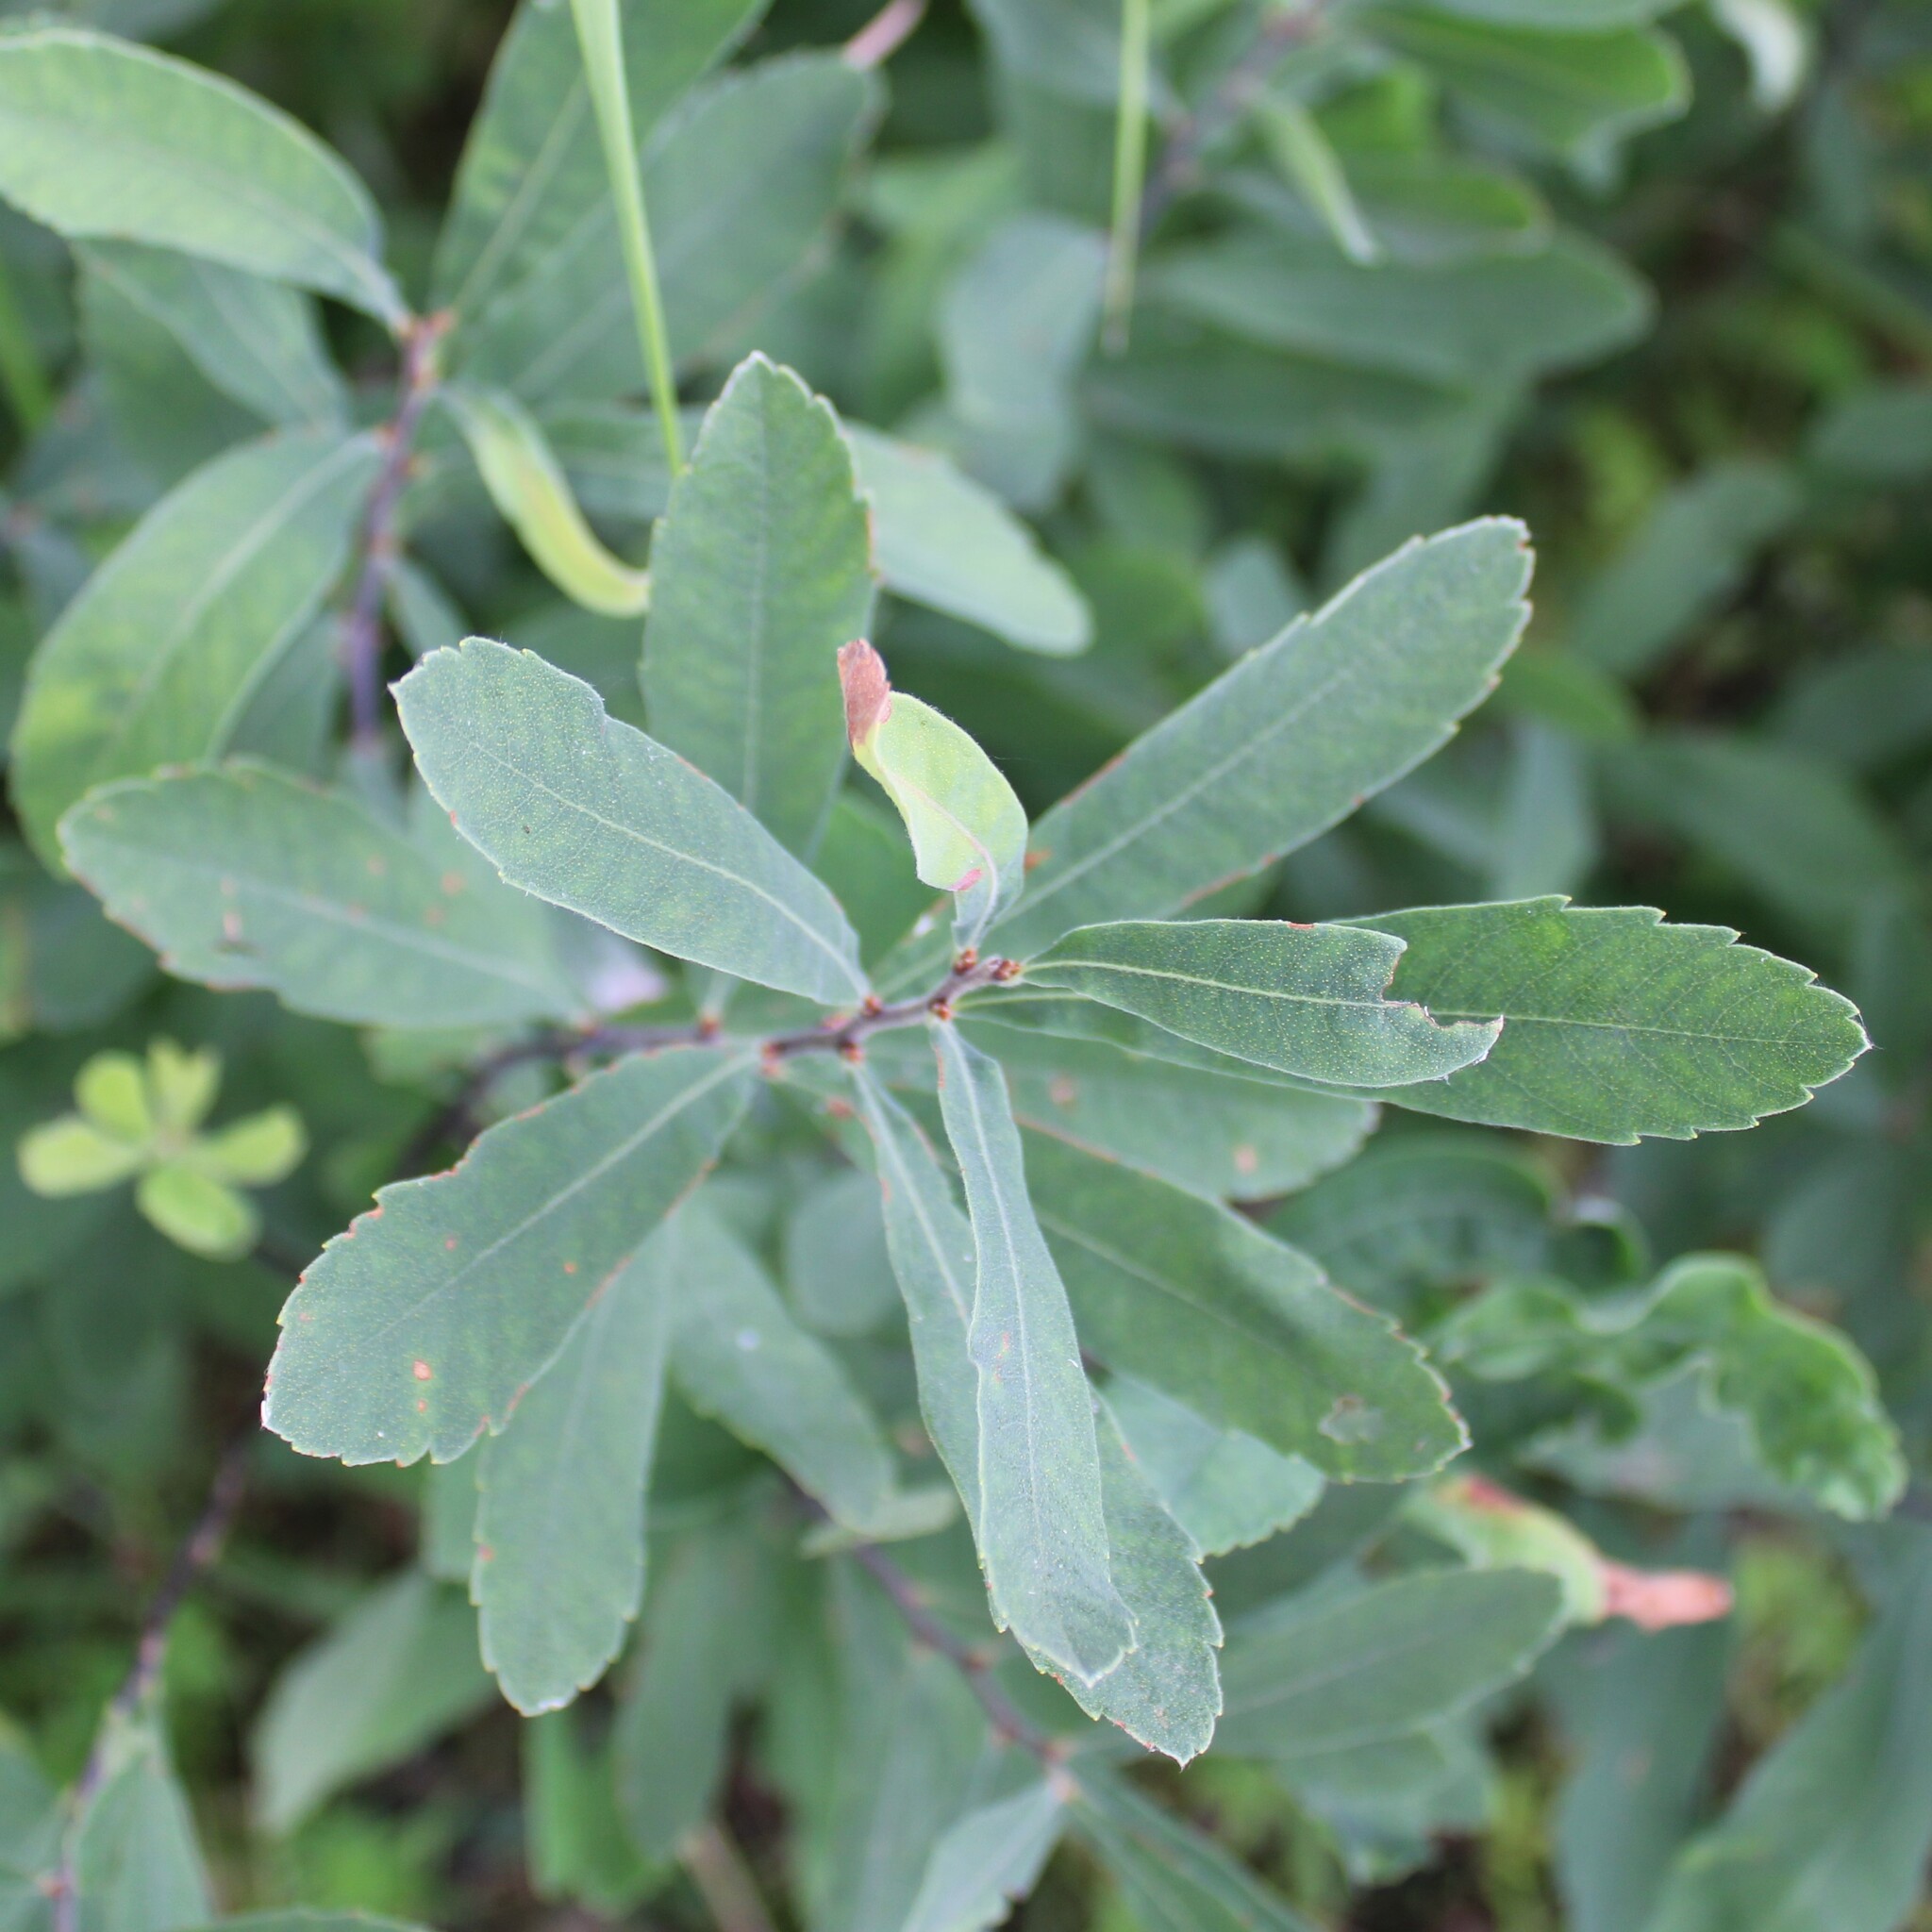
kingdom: Plantae
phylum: Tracheophyta
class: Magnoliopsida
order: Fagales
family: Myricaceae
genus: Myrica
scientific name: Myrica gale
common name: Sweet gale
